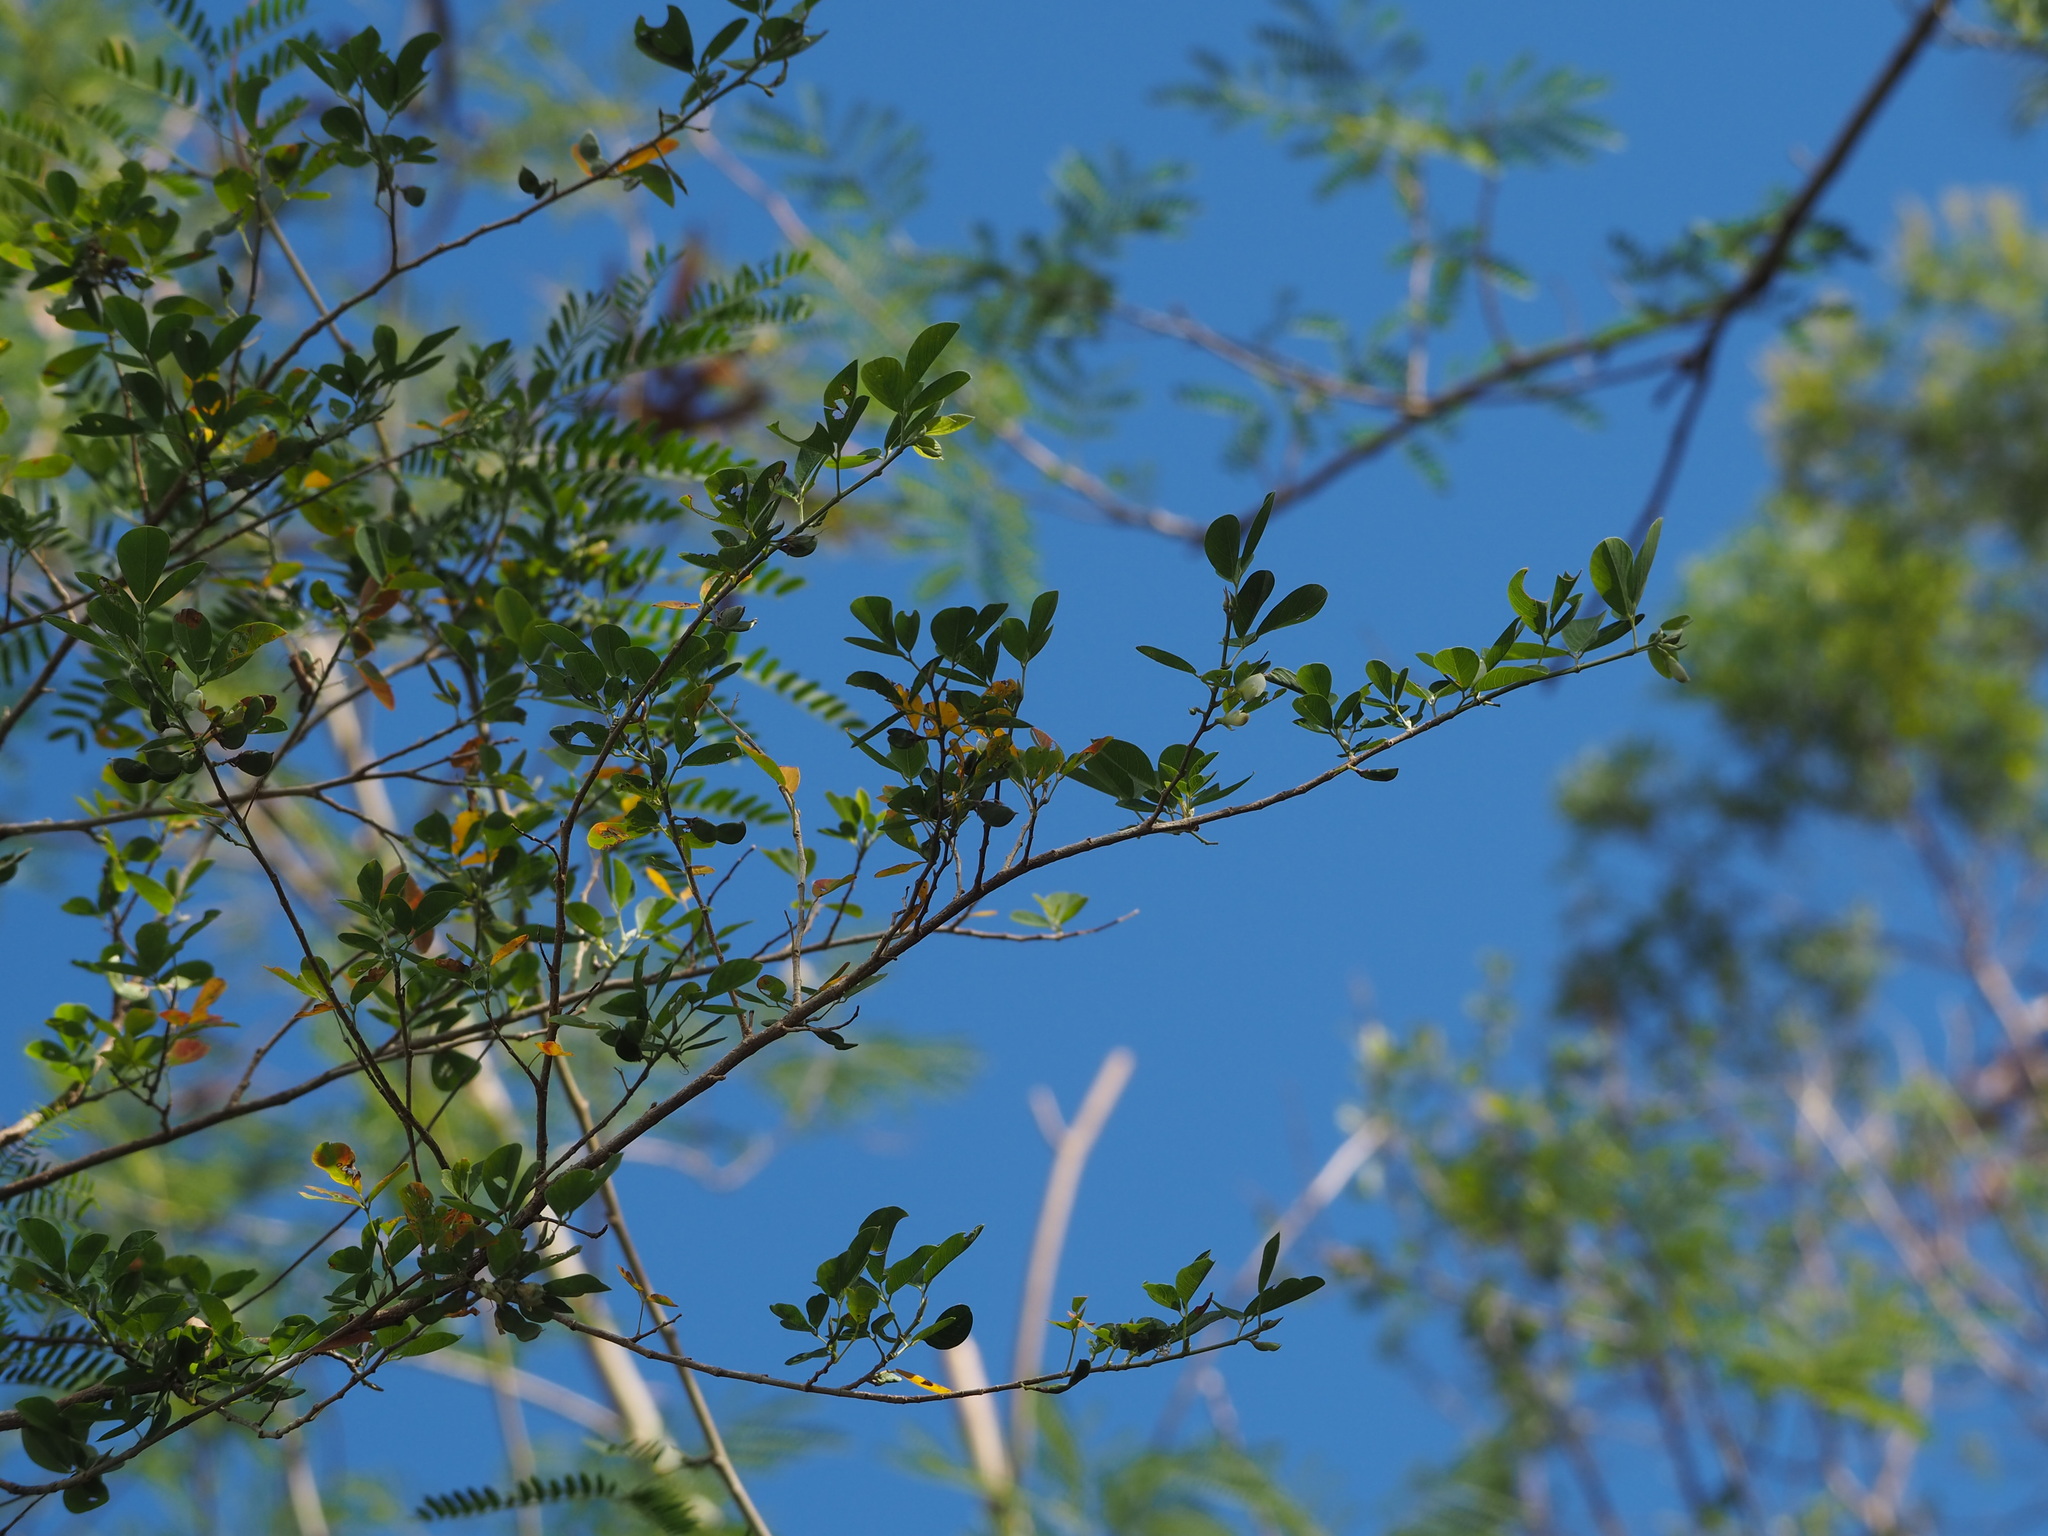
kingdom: Plantae
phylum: Tracheophyta
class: Magnoliopsida
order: Fabales
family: Fabaceae
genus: Dendrolobium
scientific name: Dendrolobium dispermum
